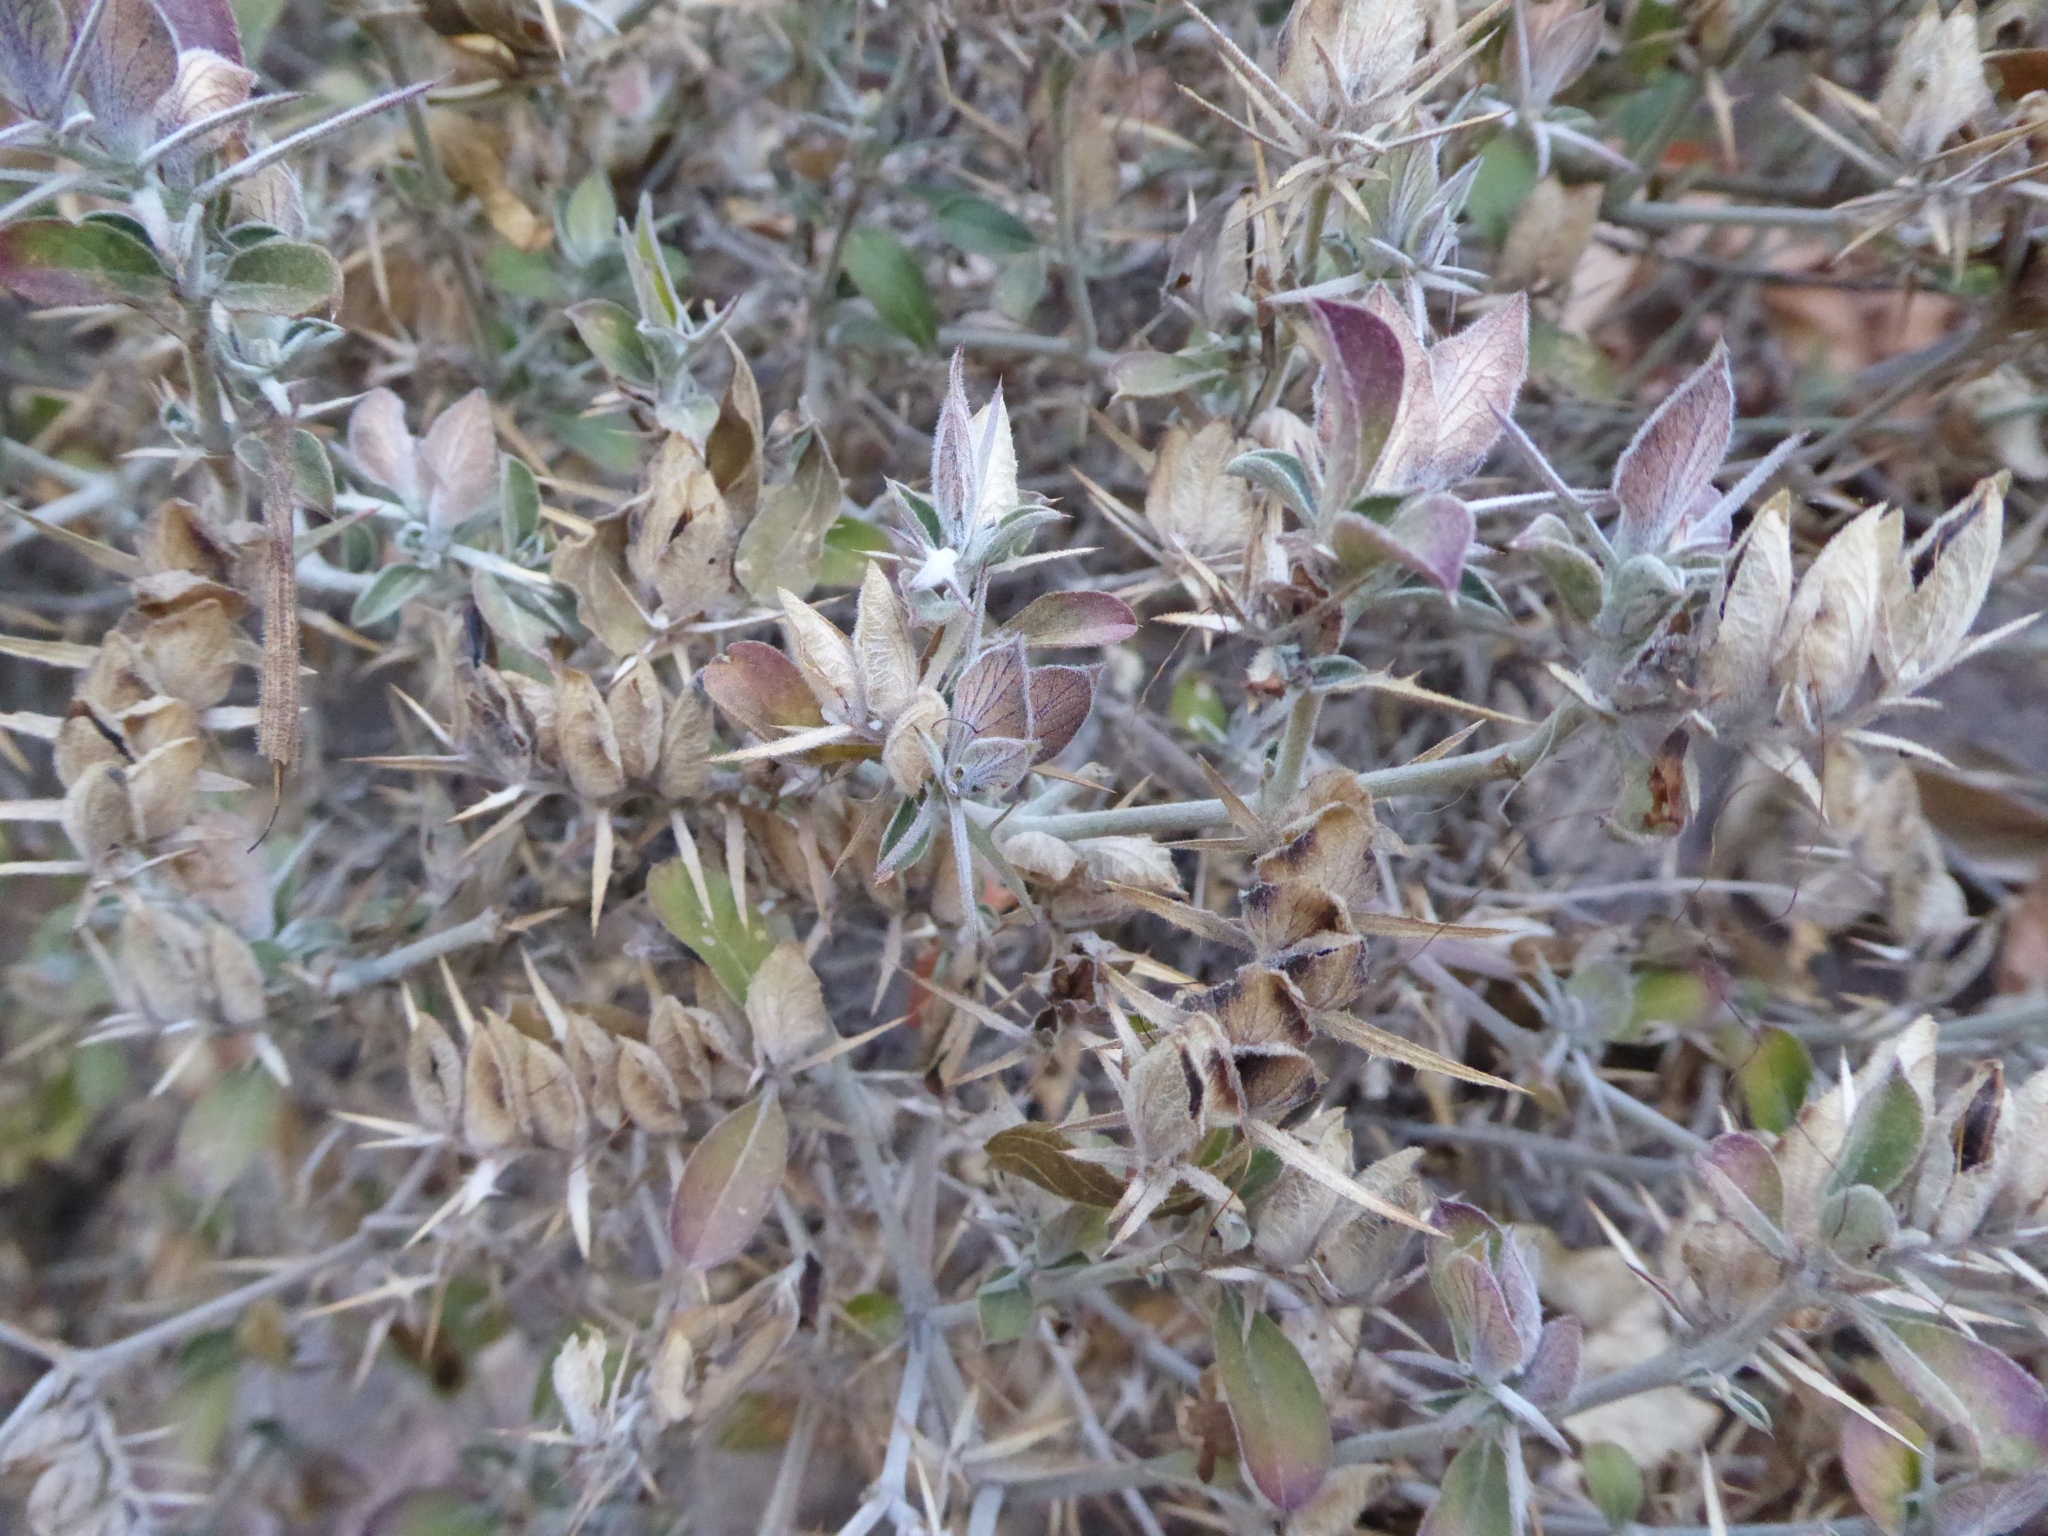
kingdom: Plantae
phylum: Tracheophyta
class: Magnoliopsida
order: Lamiales
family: Acanthaceae
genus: Lepidagathis
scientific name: Lepidagathis trinervis
